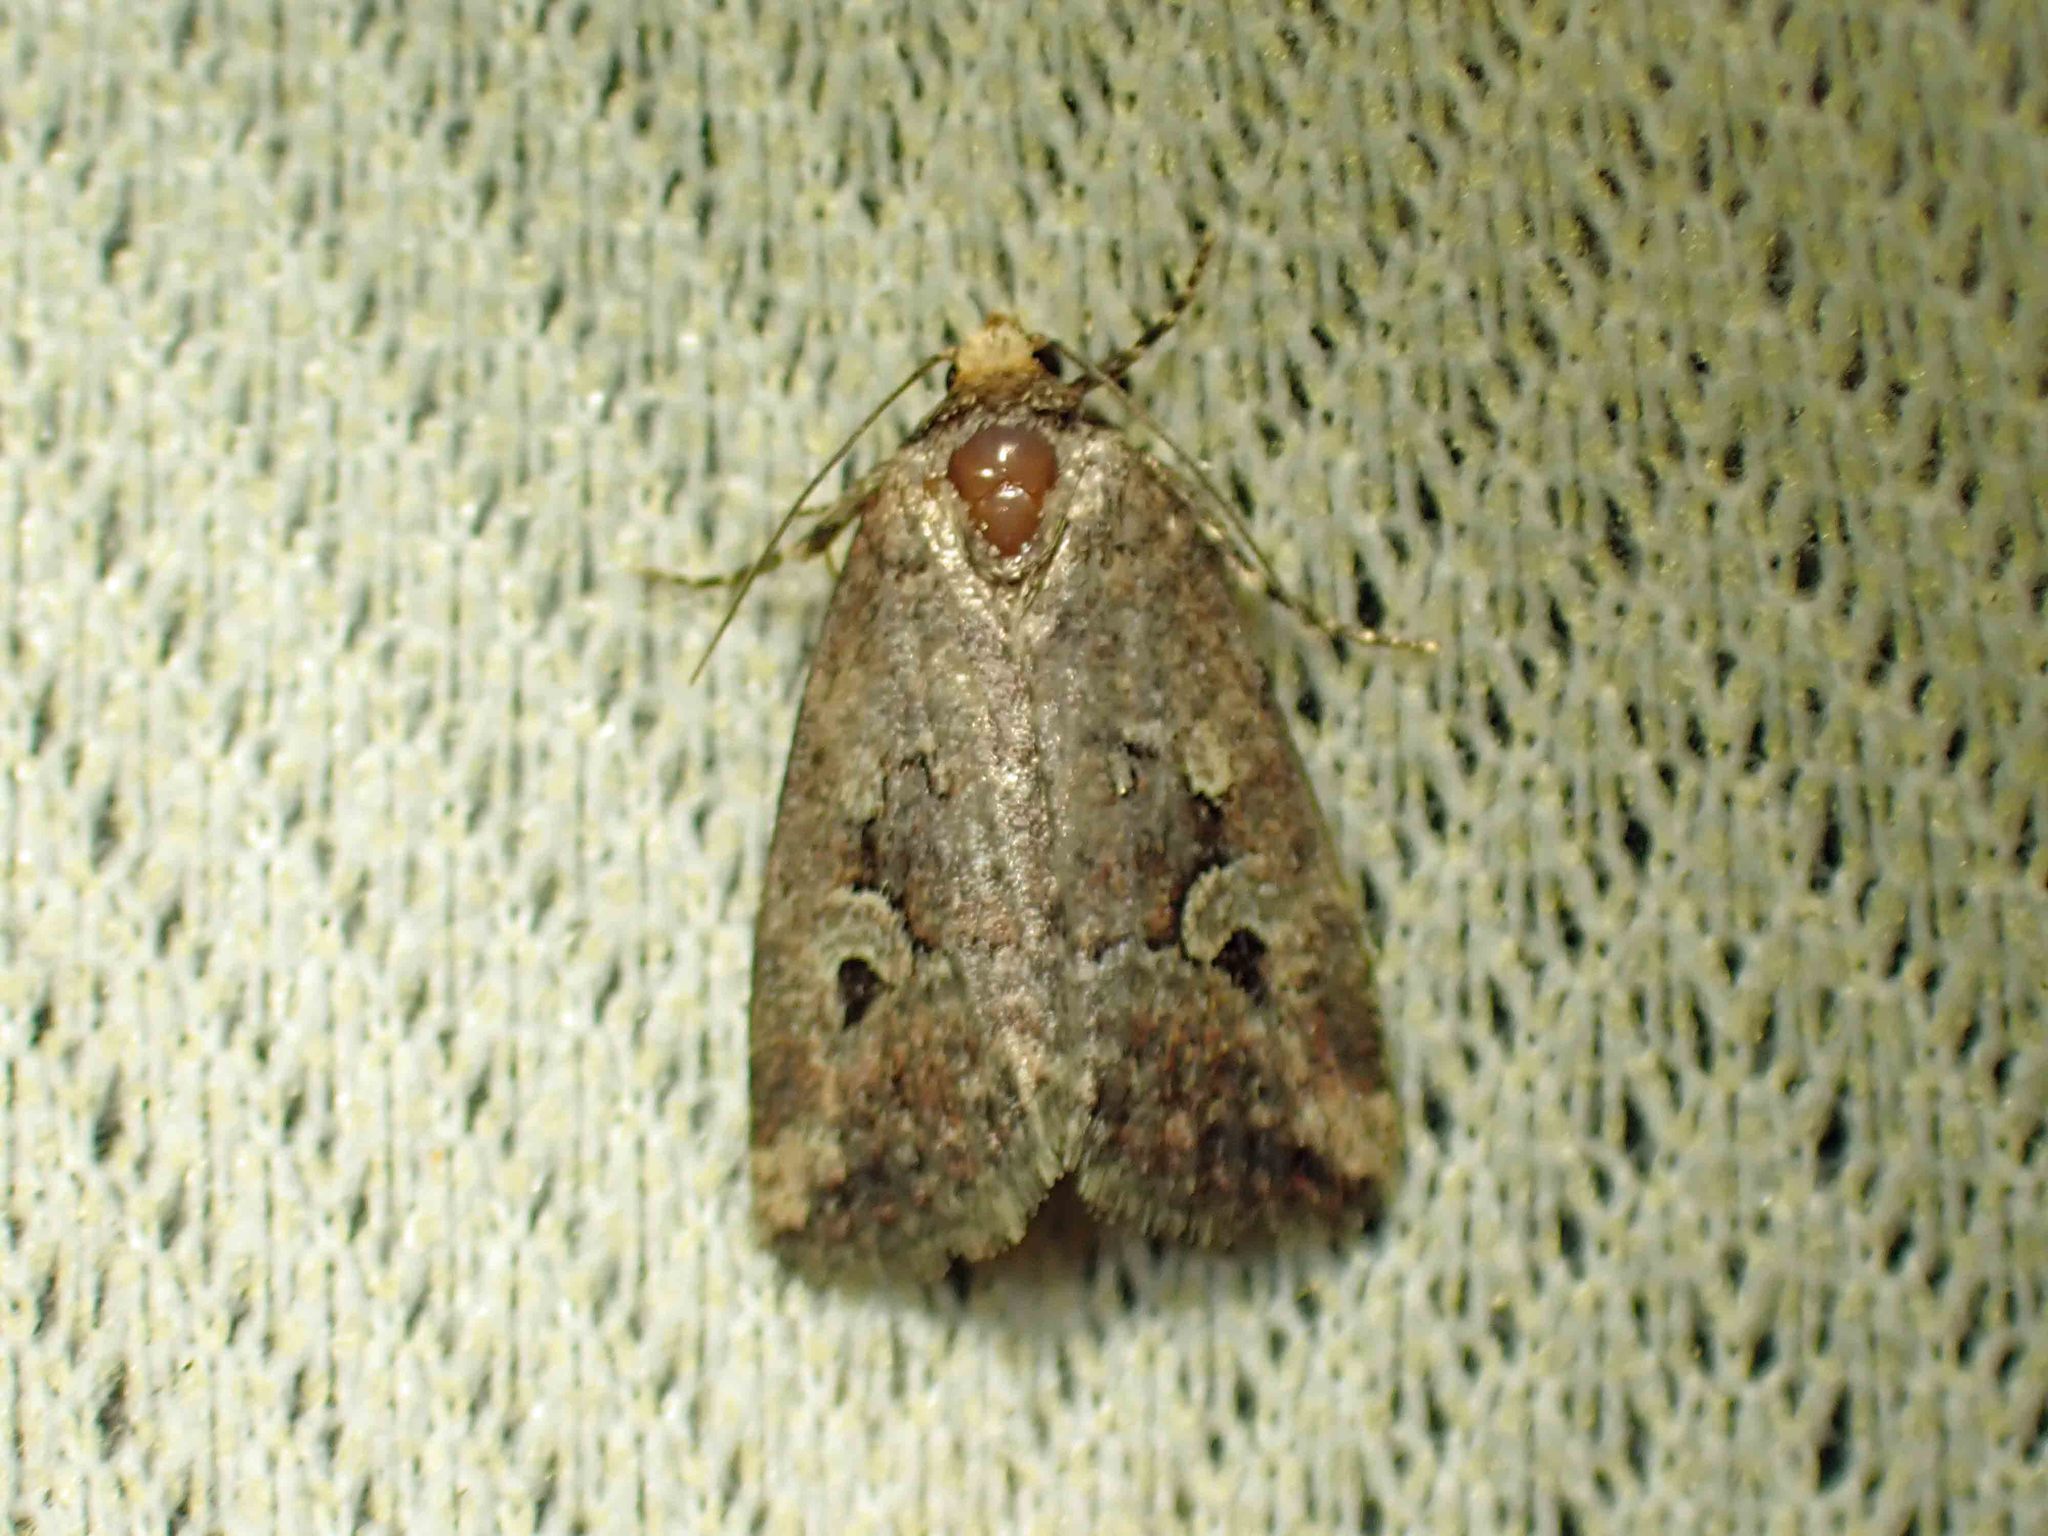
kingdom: Animalia
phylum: Arthropoda
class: Insecta
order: Lepidoptera
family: Noctuidae
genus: Elaphria
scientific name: Elaphria alapallida
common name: Pale-winged midget
